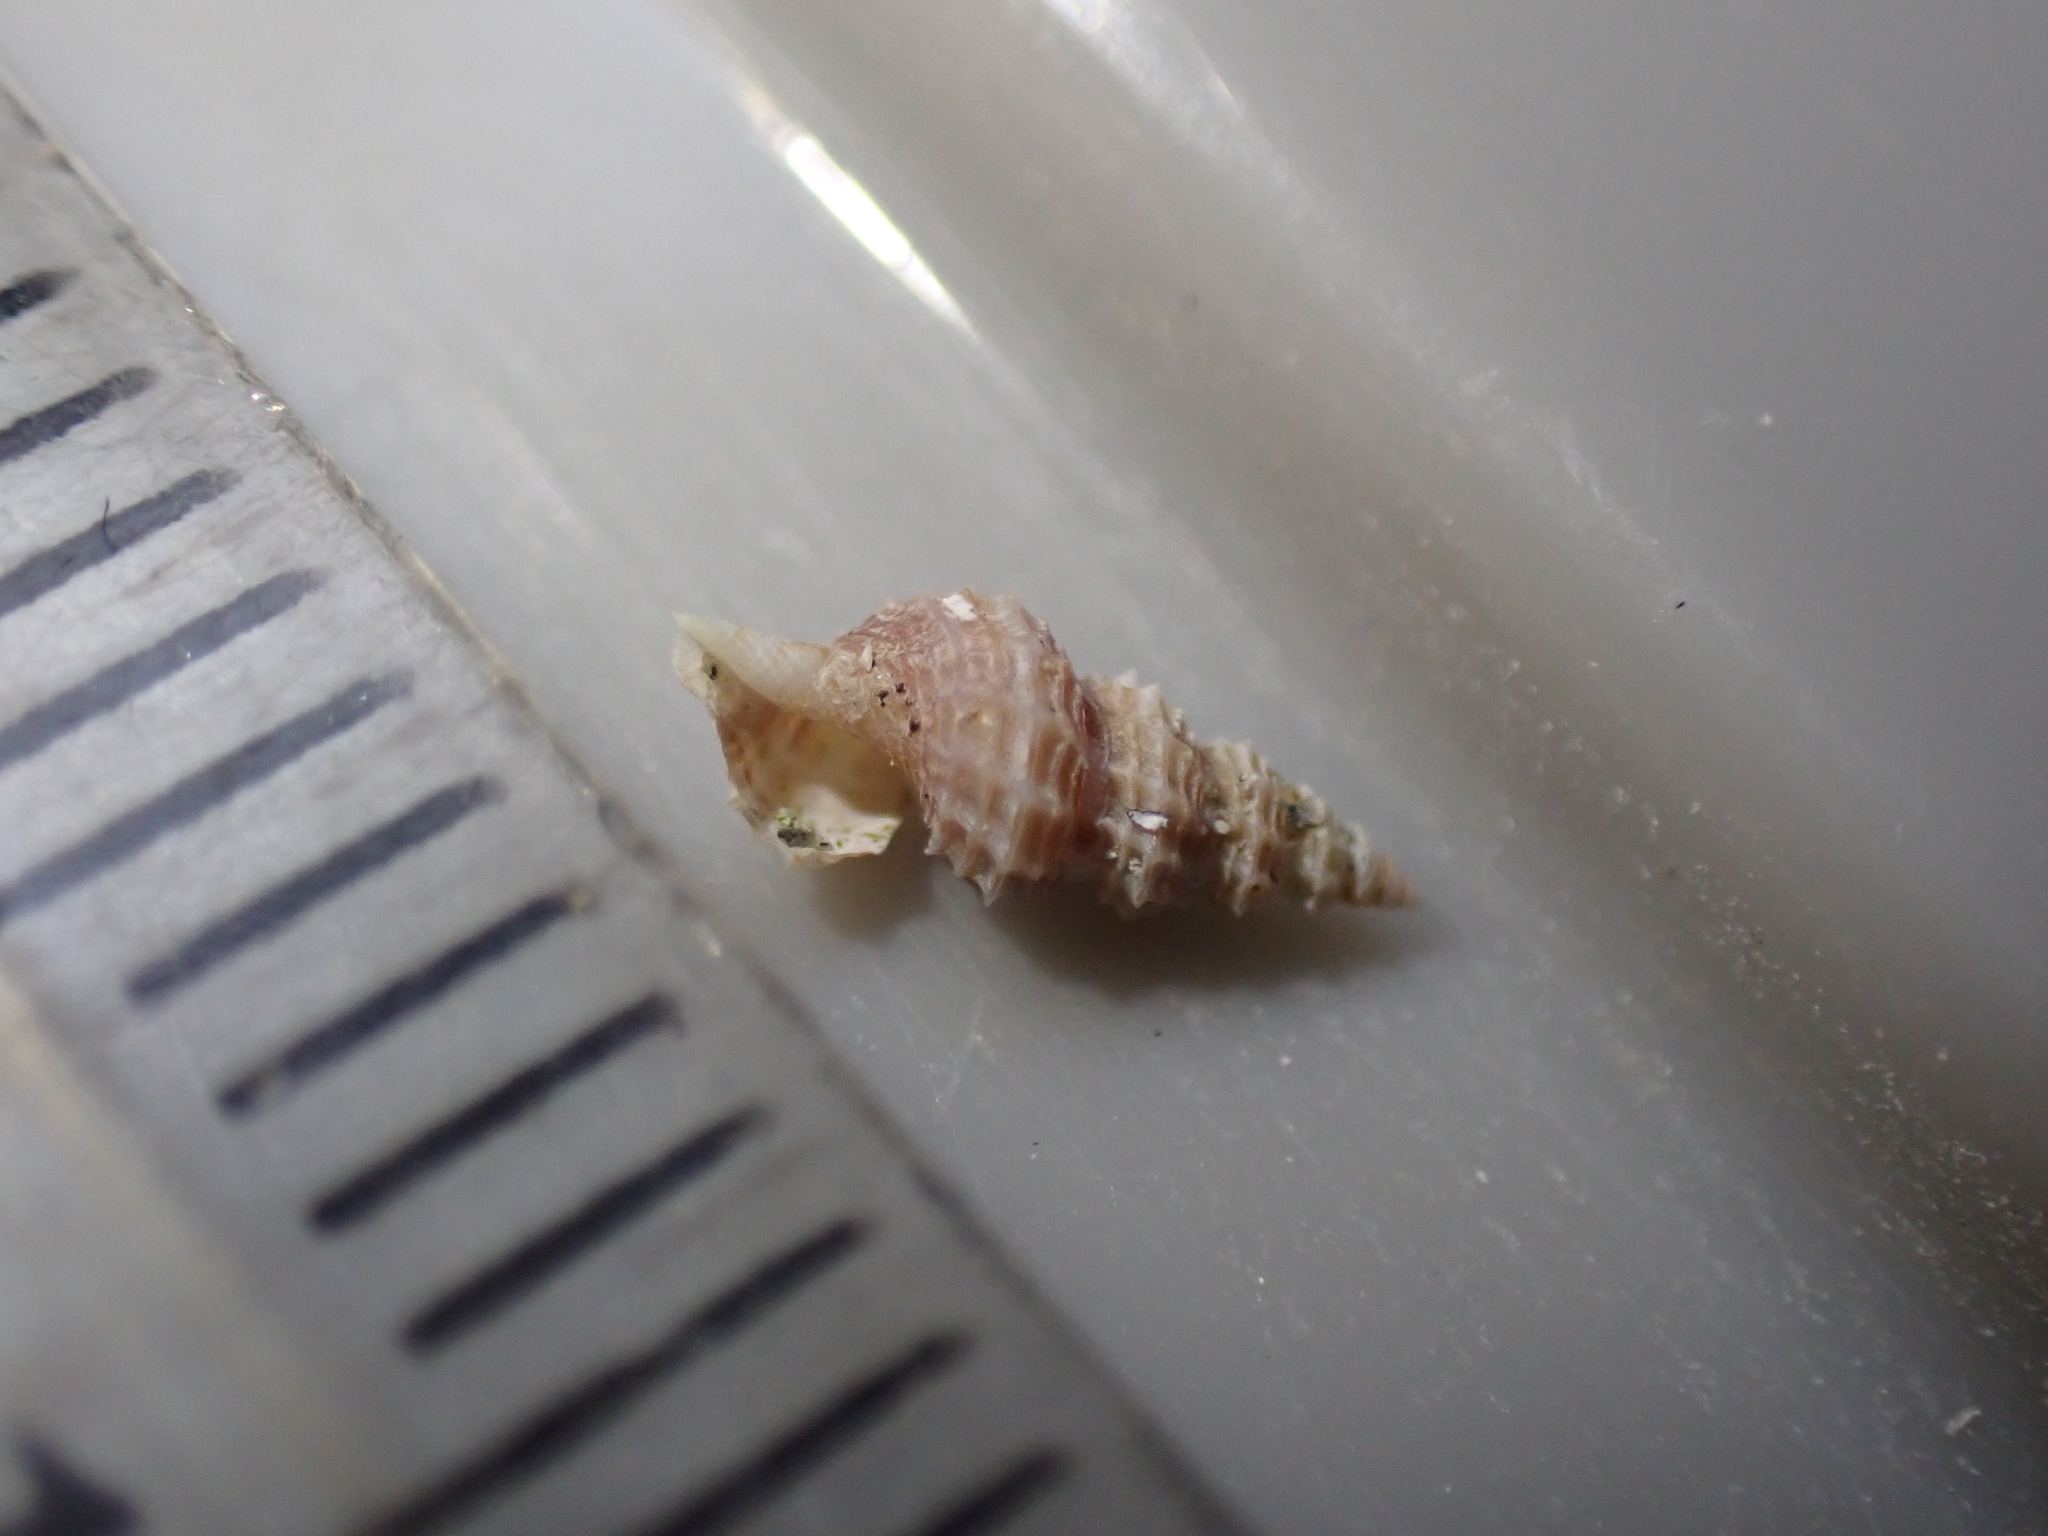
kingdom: Animalia
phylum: Mollusca
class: Gastropoda
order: Neogastropoda
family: Raphitomidae
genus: Veprecula
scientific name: Veprecula cooperi
